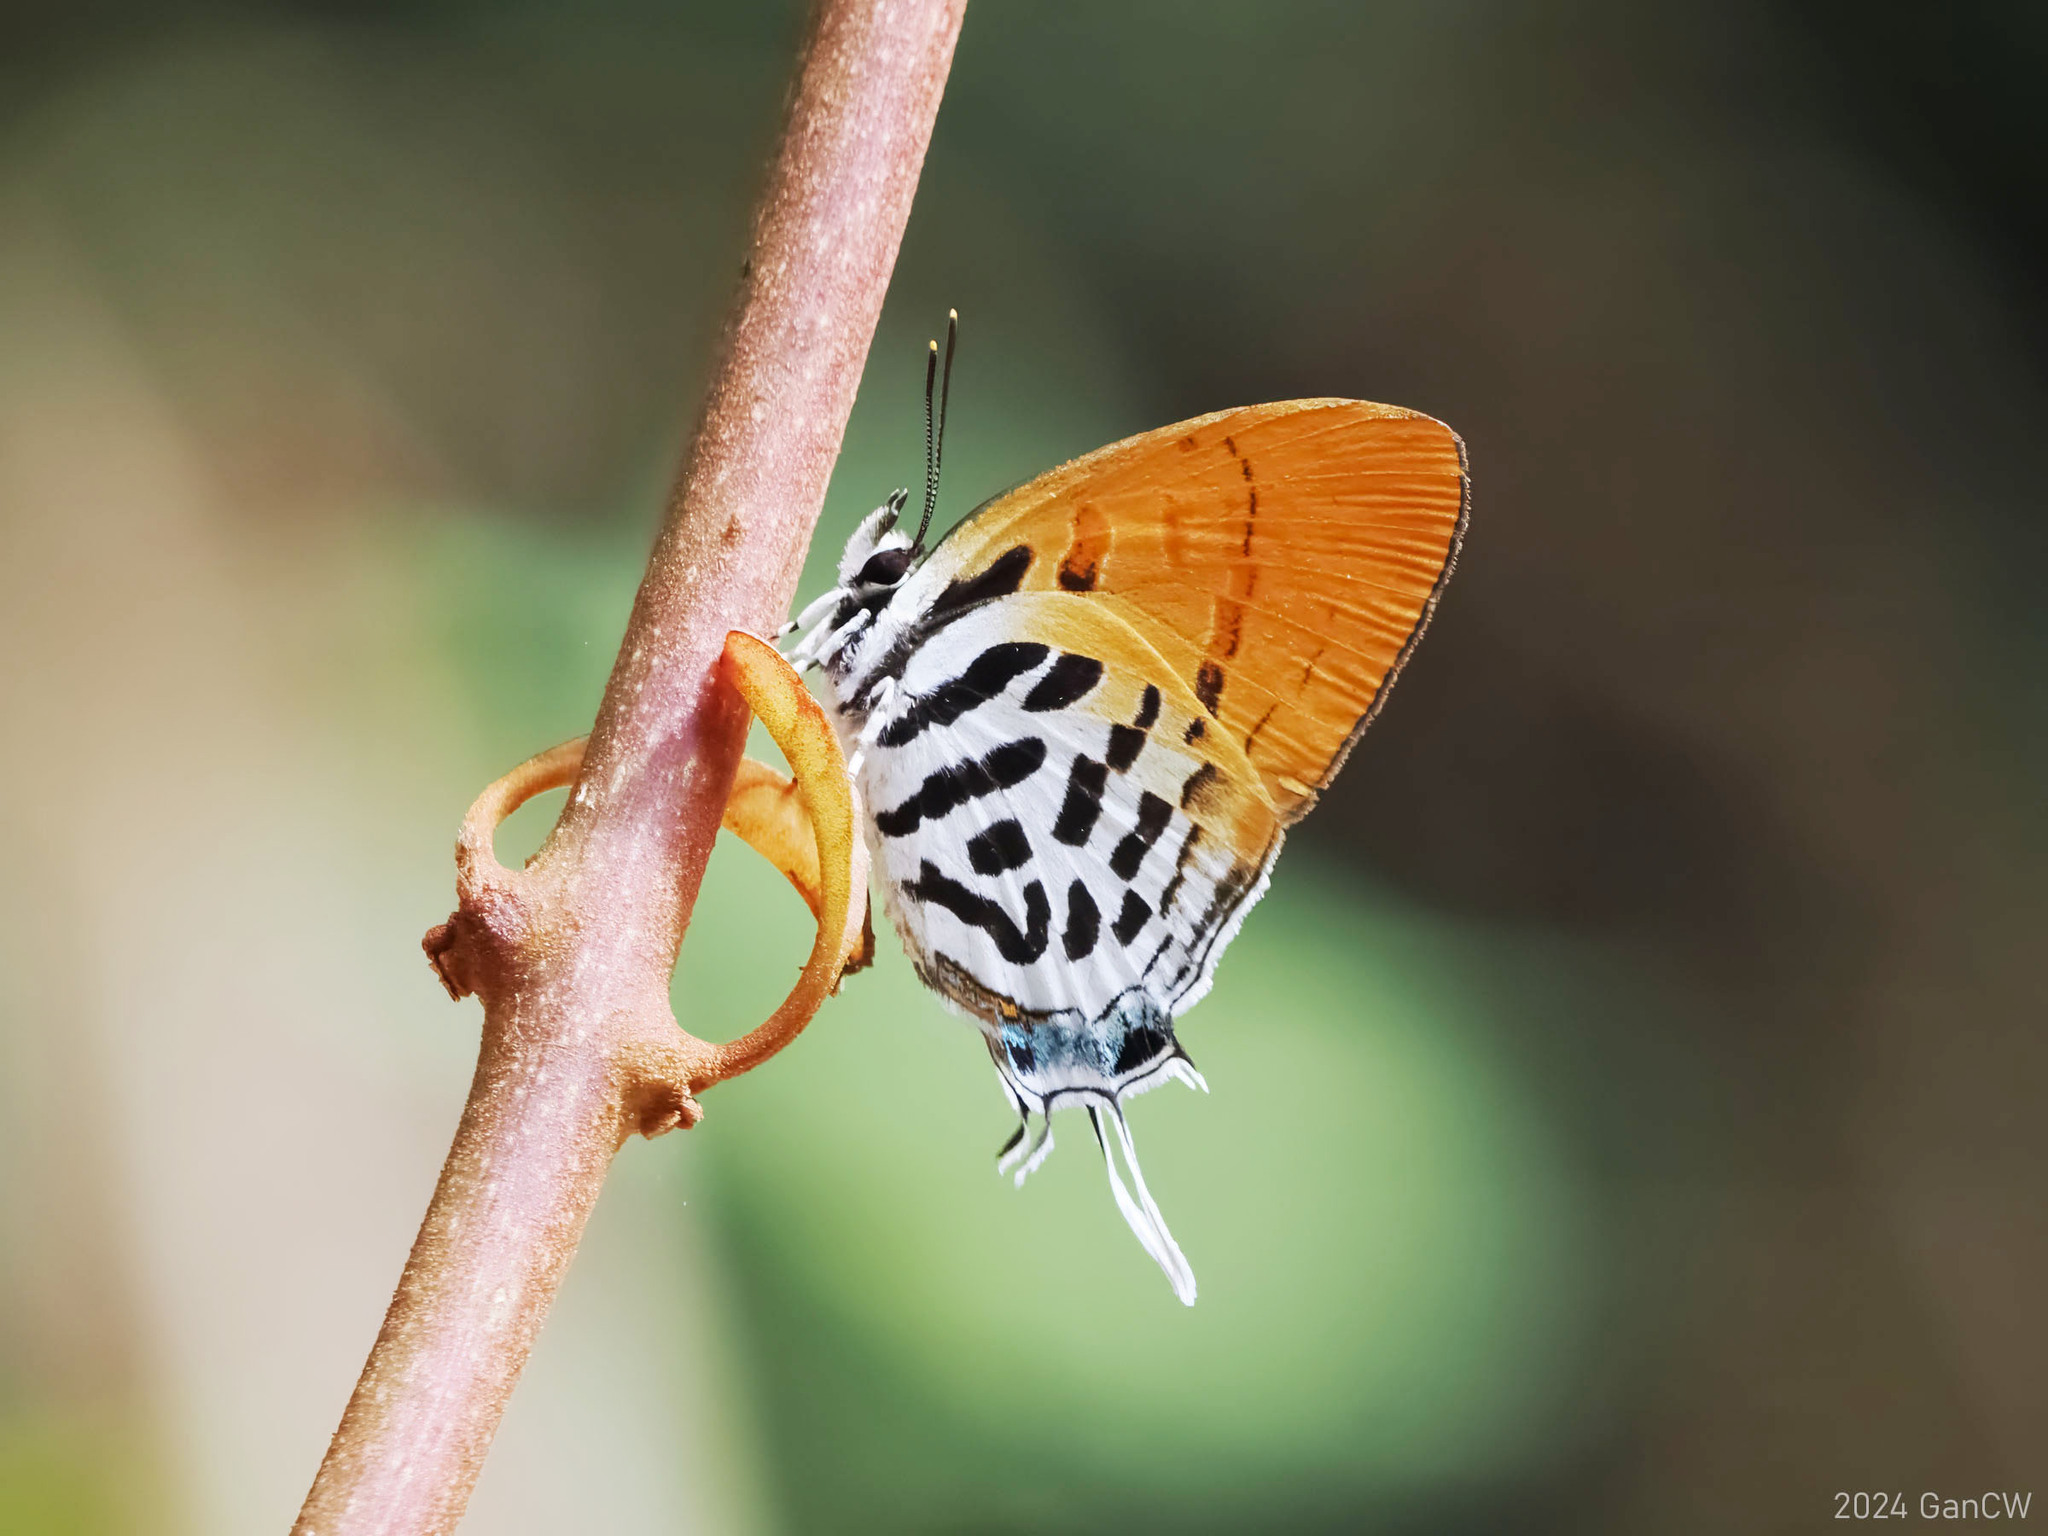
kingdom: Animalia
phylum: Arthropoda
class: Insecta
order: Lepidoptera
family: Lycaenidae
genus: Drupadia
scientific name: Drupadia ravindra
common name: Common posy
